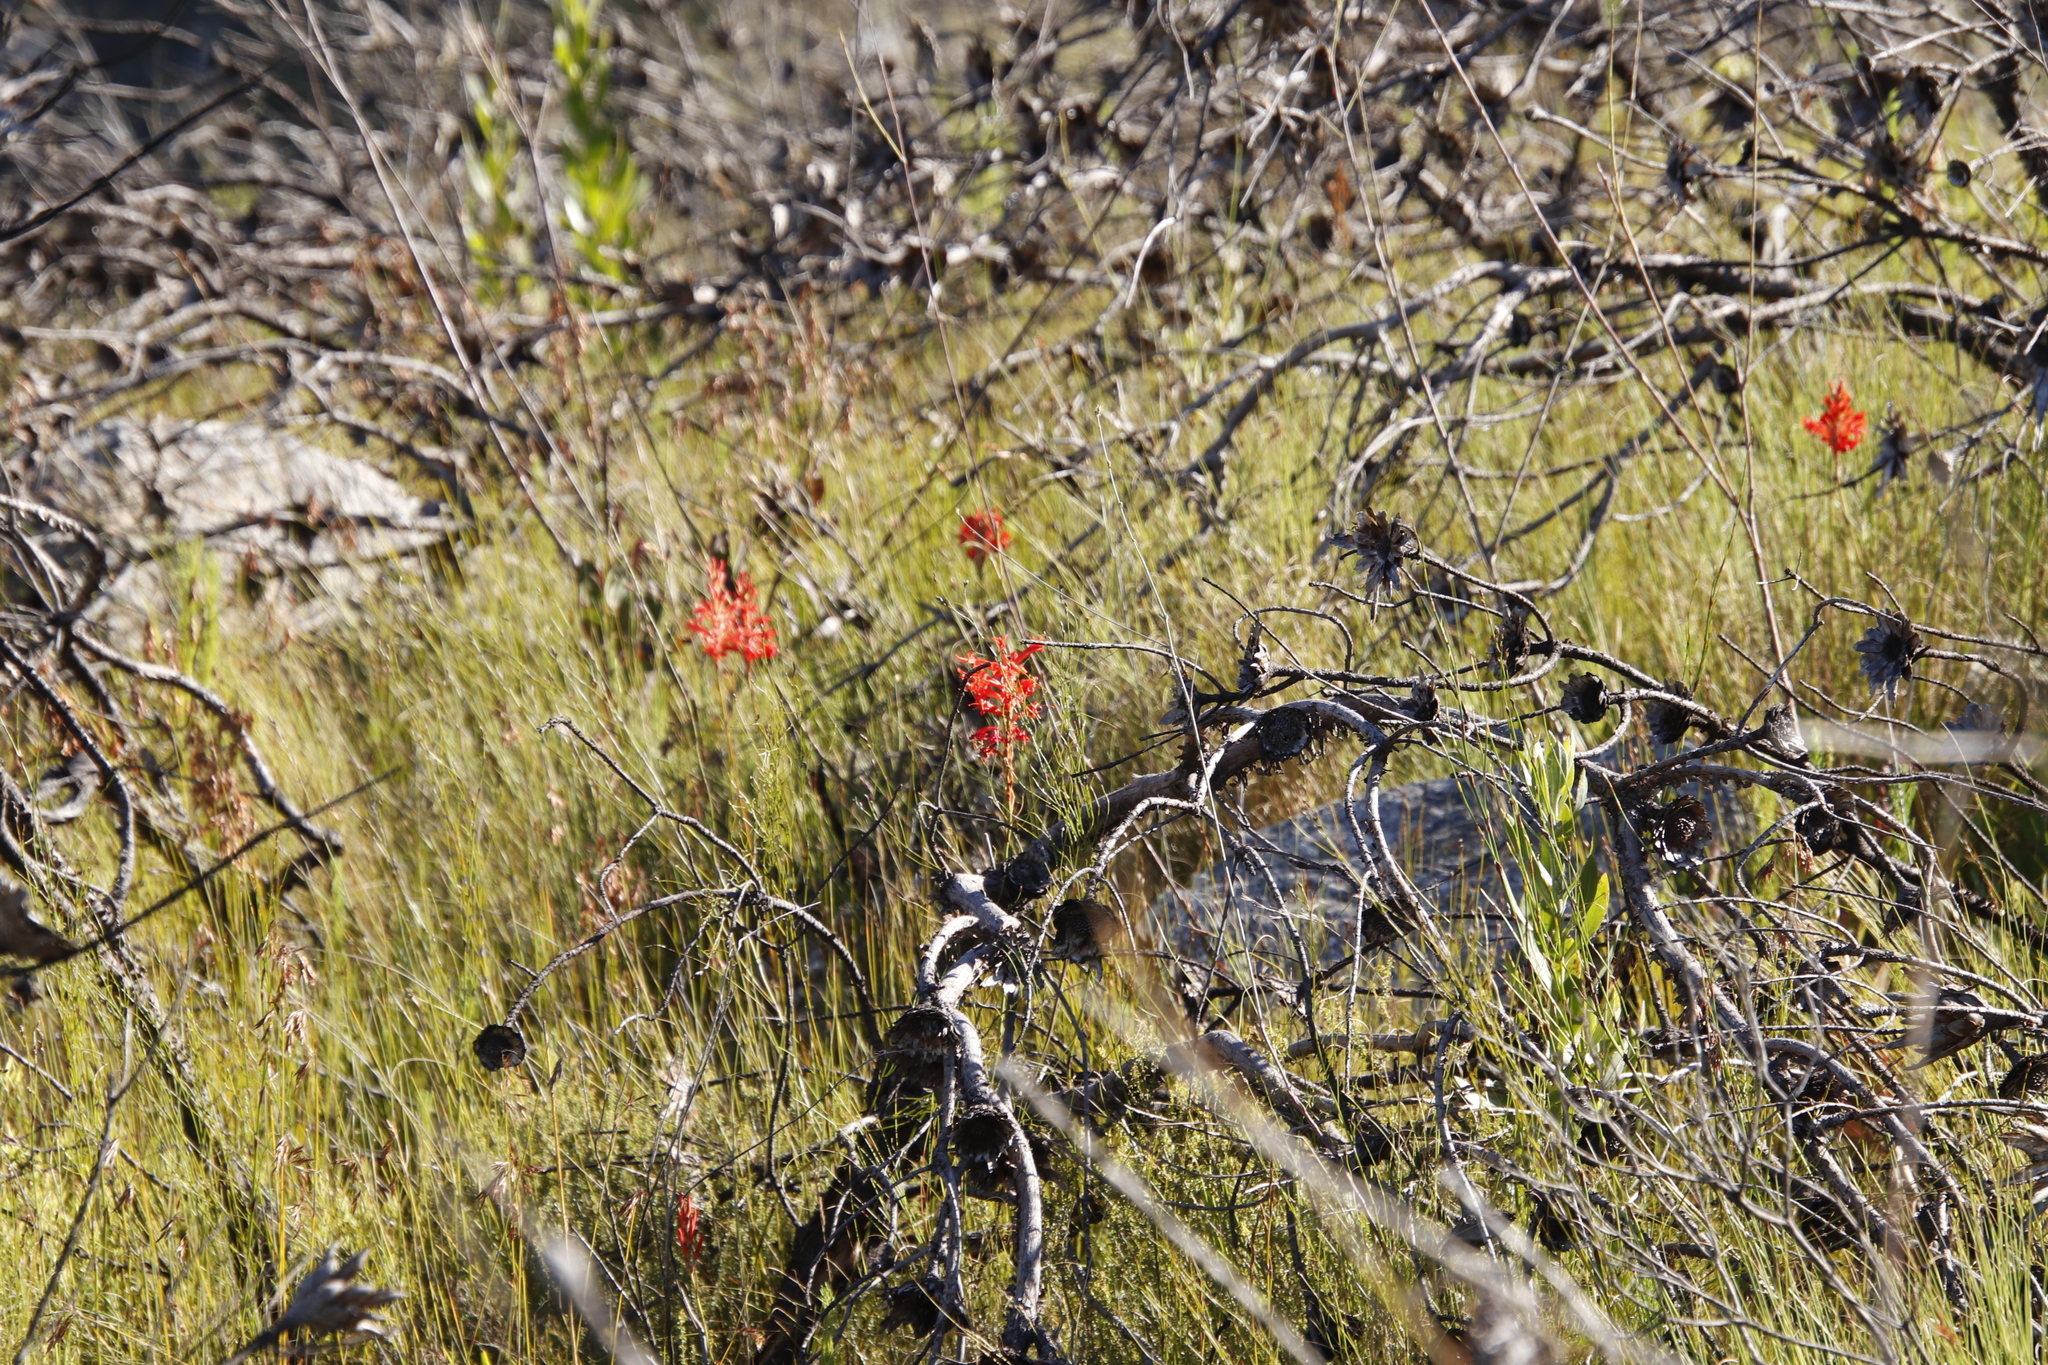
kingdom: Plantae
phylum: Tracheophyta
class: Liliopsida
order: Asparagales
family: Iridaceae
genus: Tritoniopsis
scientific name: Tritoniopsis triticea
